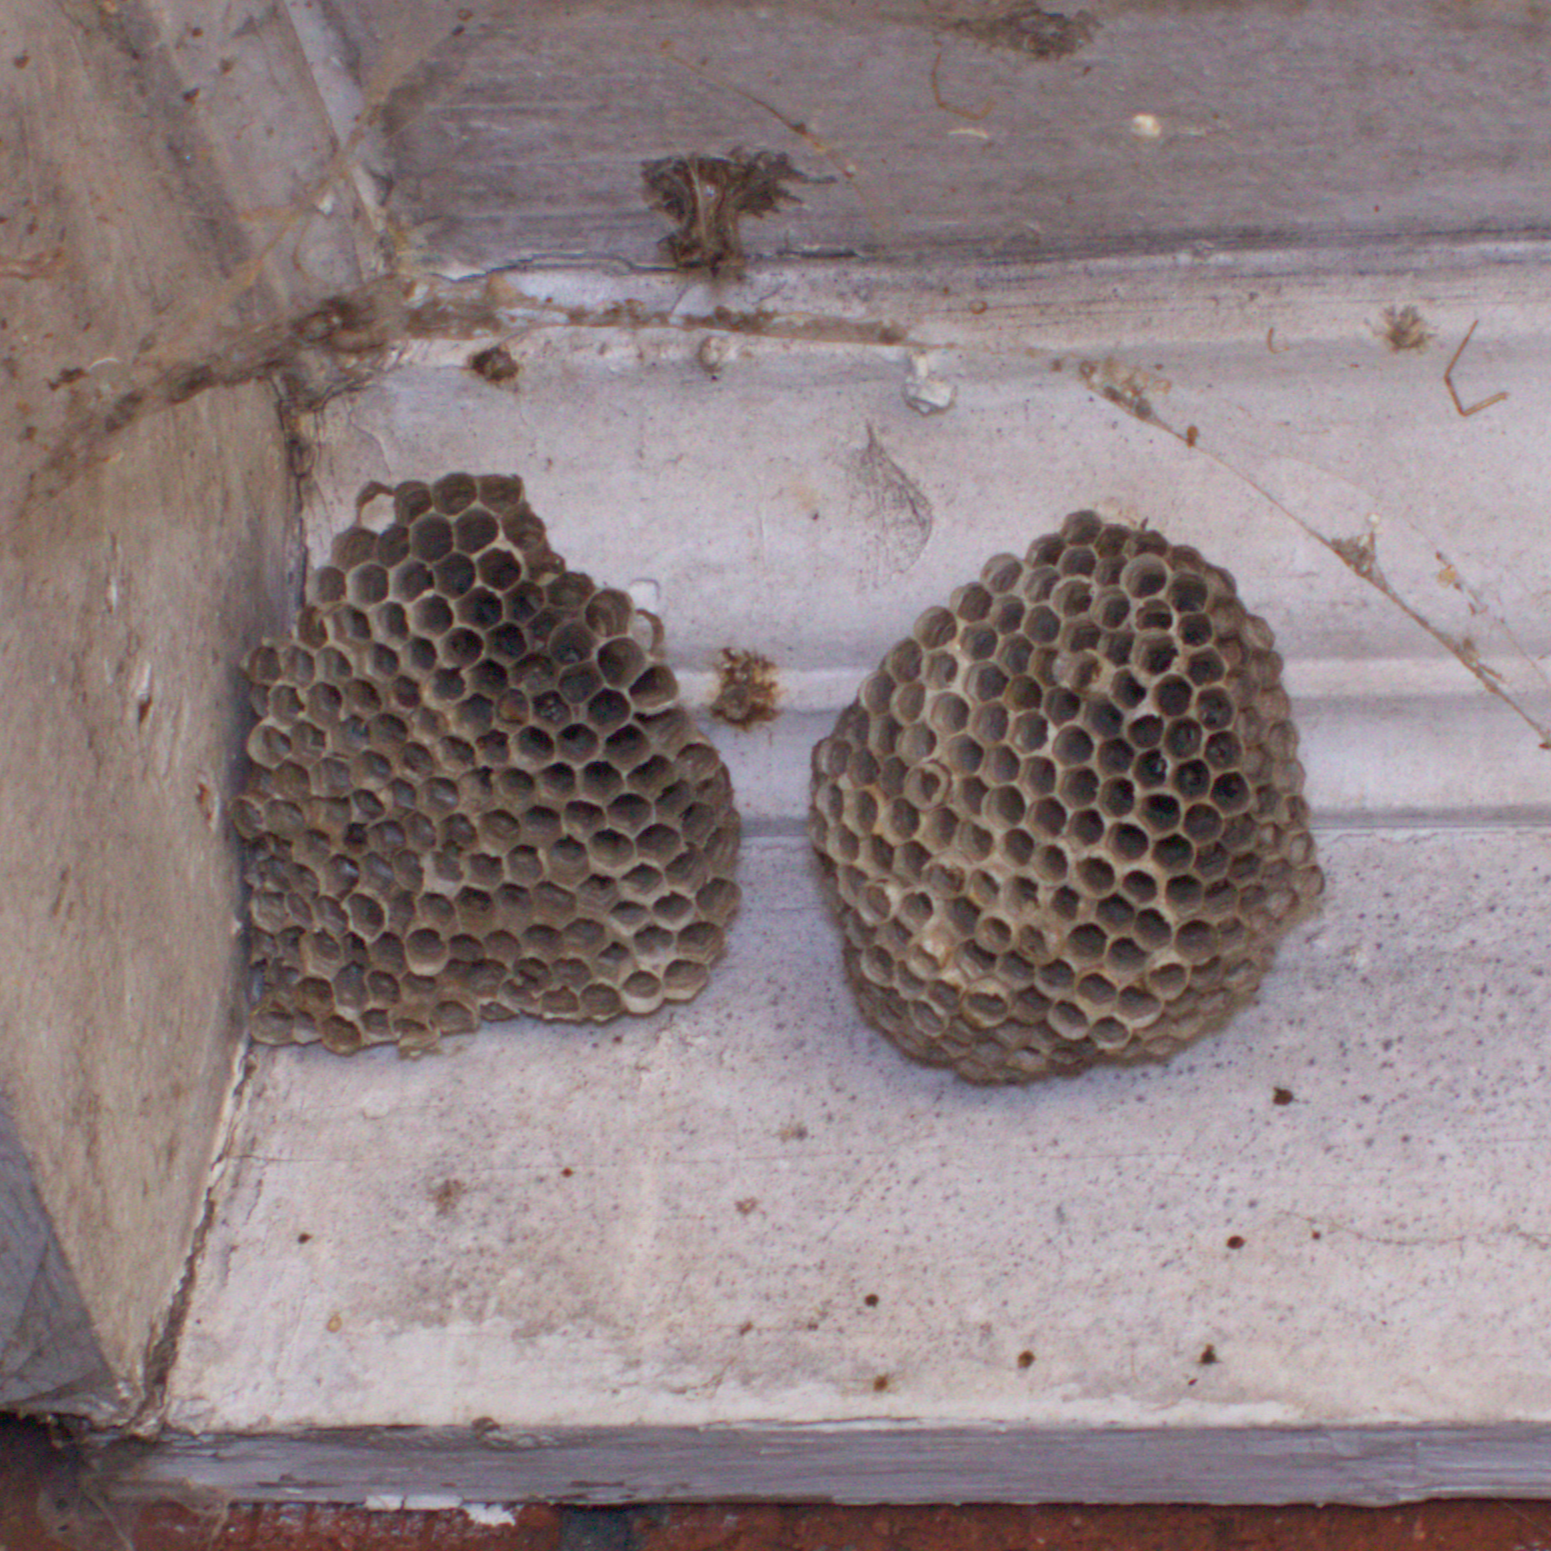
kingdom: Animalia
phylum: Arthropoda
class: Insecta
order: Hymenoptera
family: Eumenidae
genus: Polistes
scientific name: Polistes
